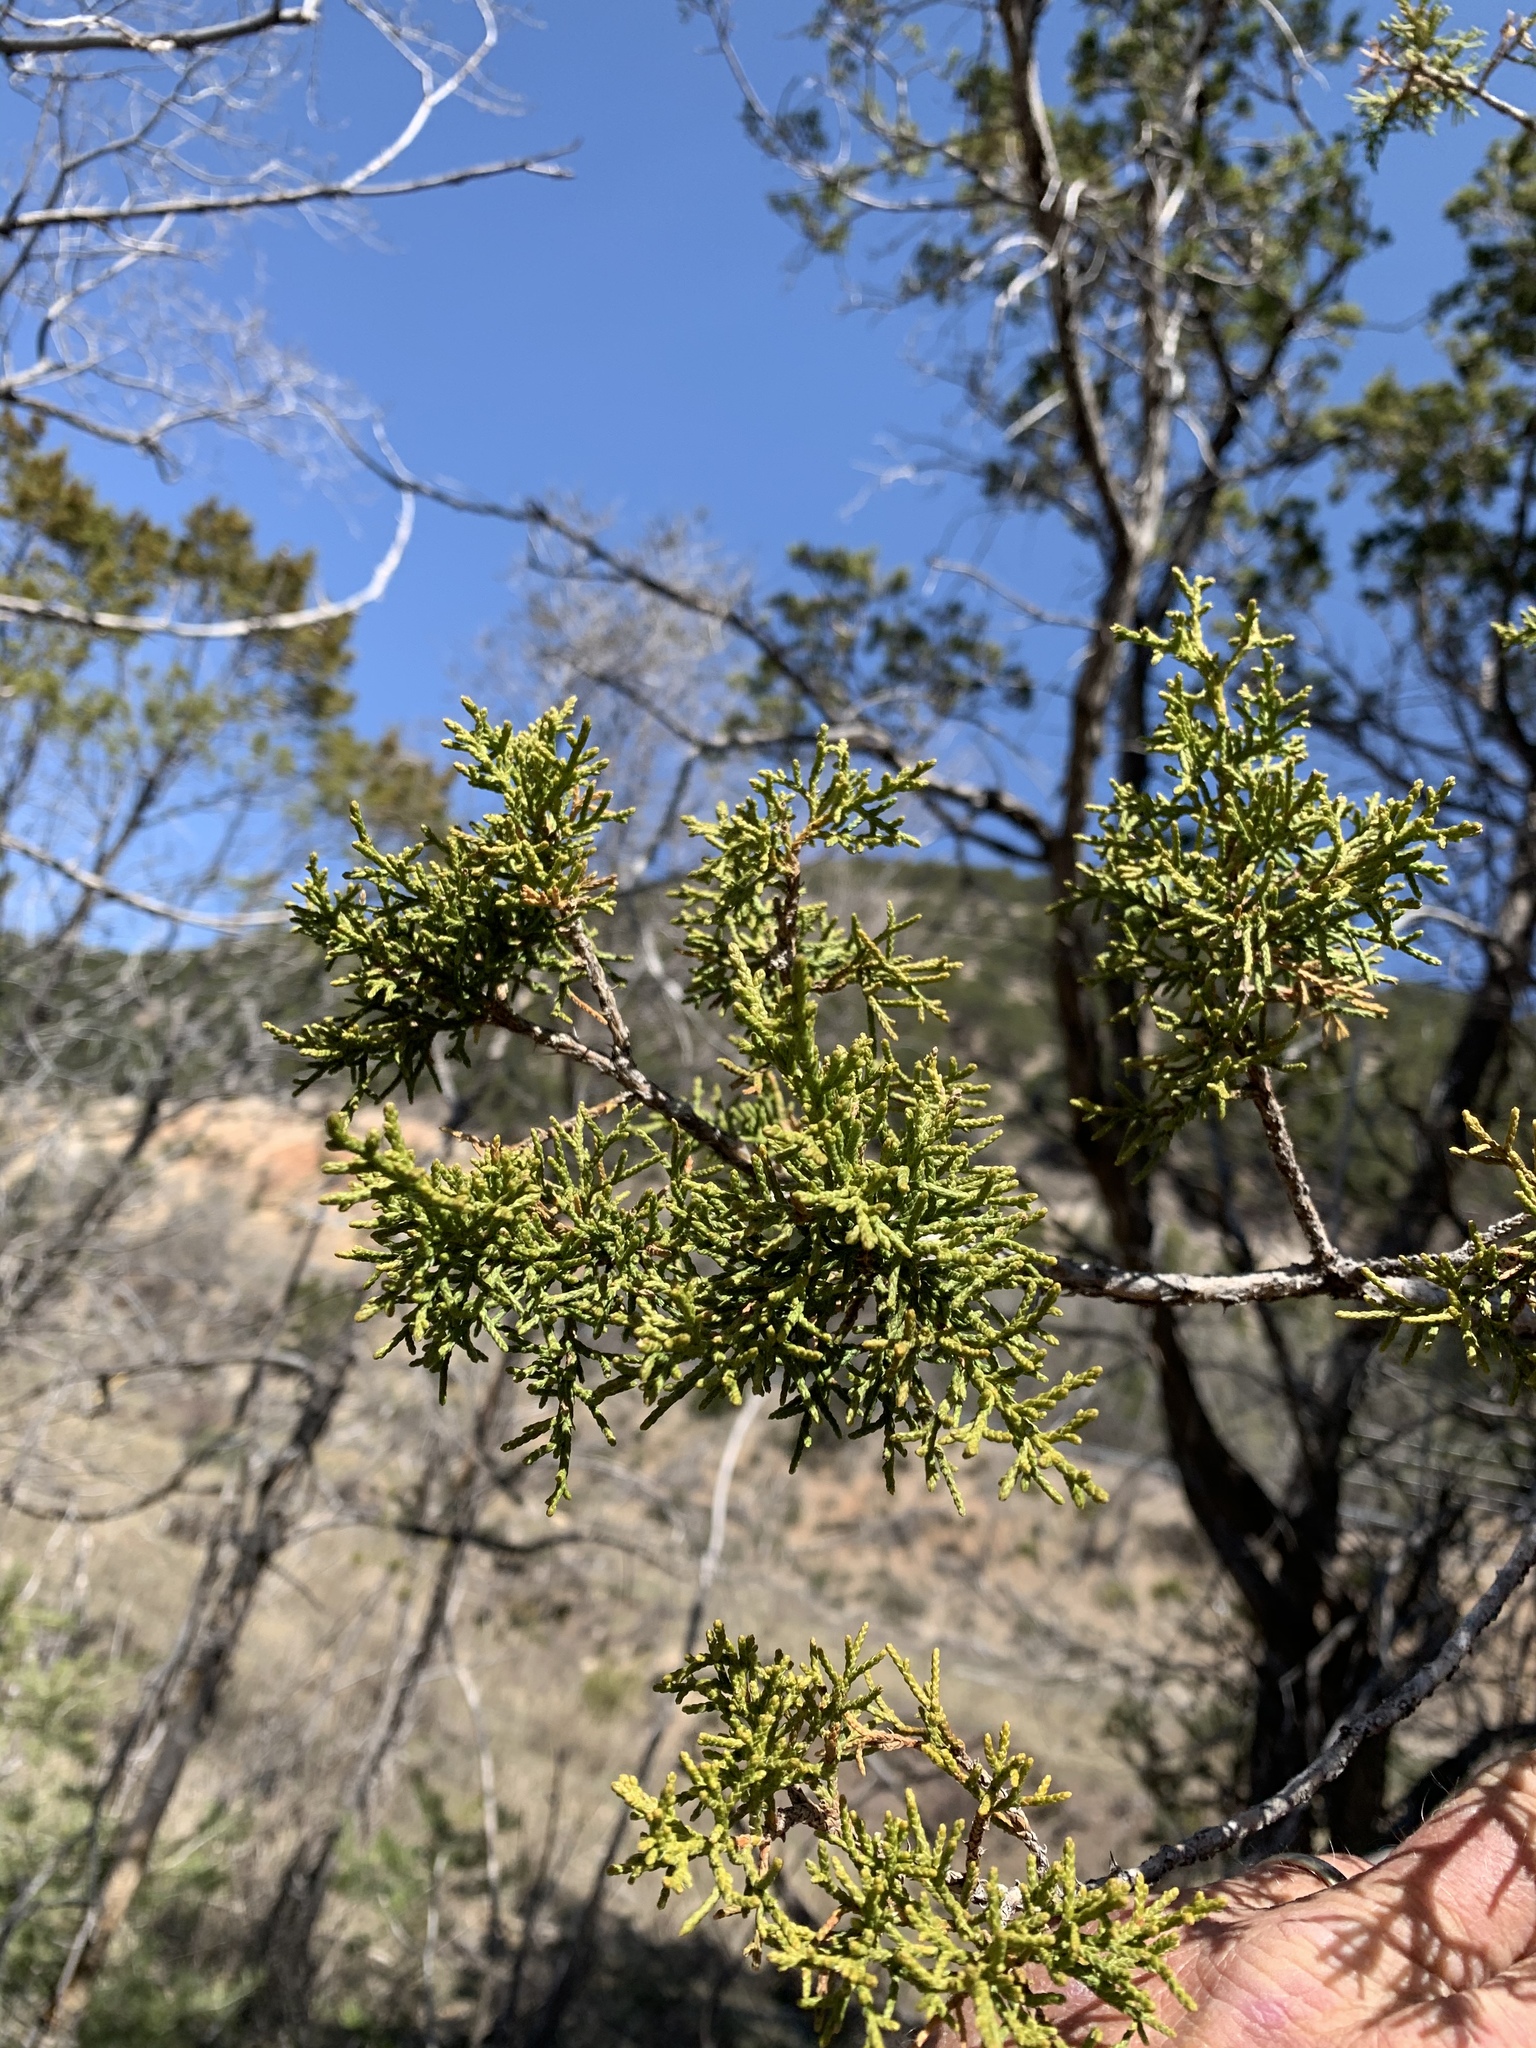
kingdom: Plantae
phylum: Tracheophyta
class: Pinopsida
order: Pinales
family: Cupressaceae
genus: Juniperus
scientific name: Juniperus monosperma
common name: One-seed juniper
